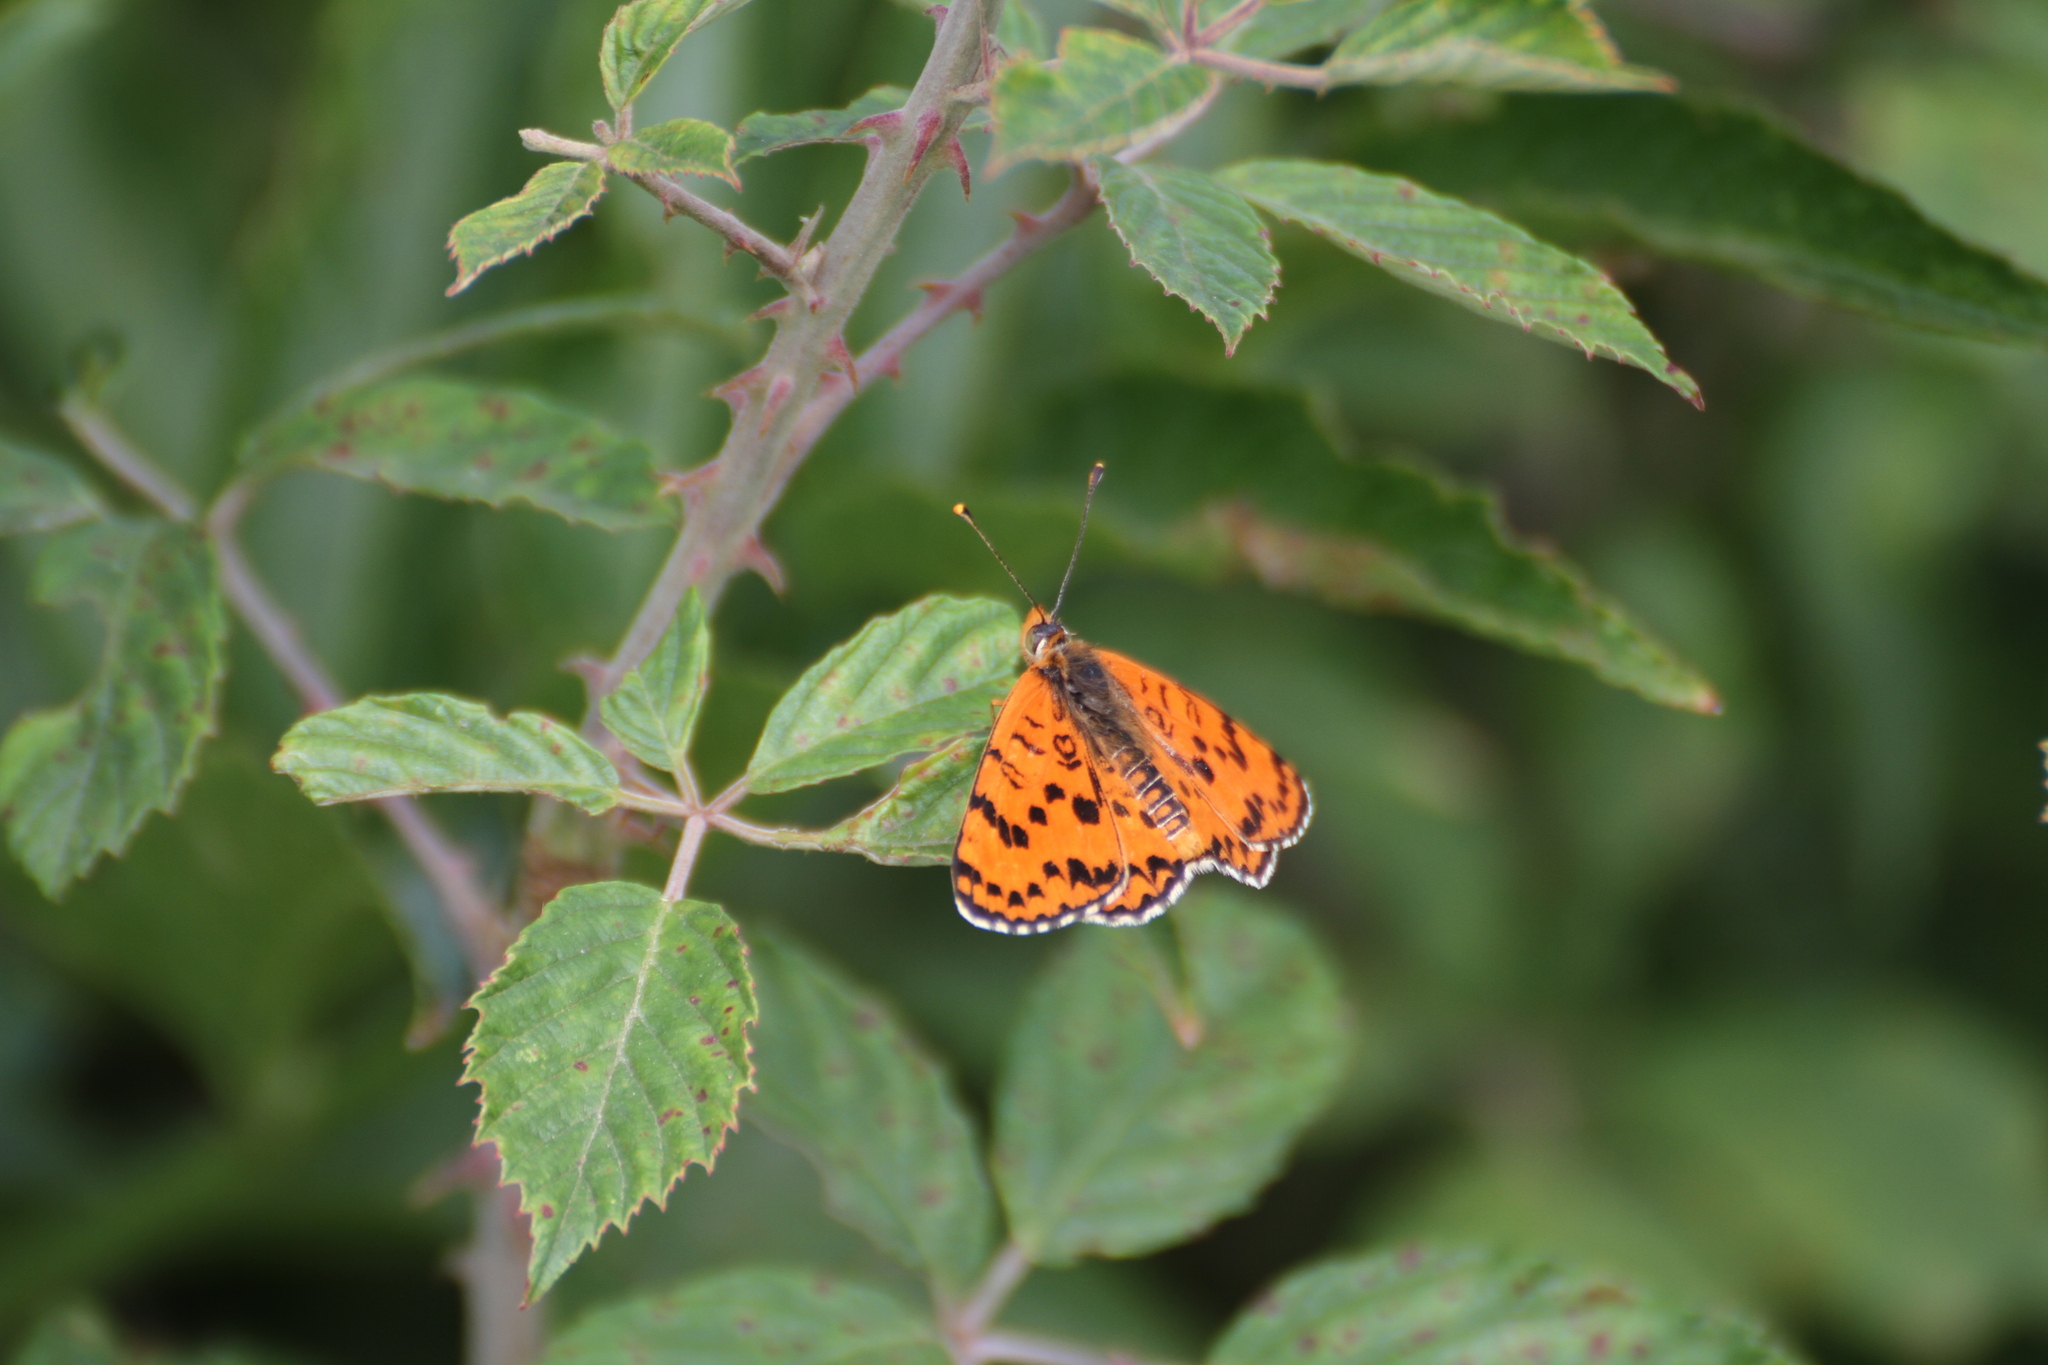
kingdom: Animalia
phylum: Arthropoda
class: Insecta
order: Lepidoptera
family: Nymphalidae
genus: Melitaea
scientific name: Melitaea didyma
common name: Spotted fritillary
